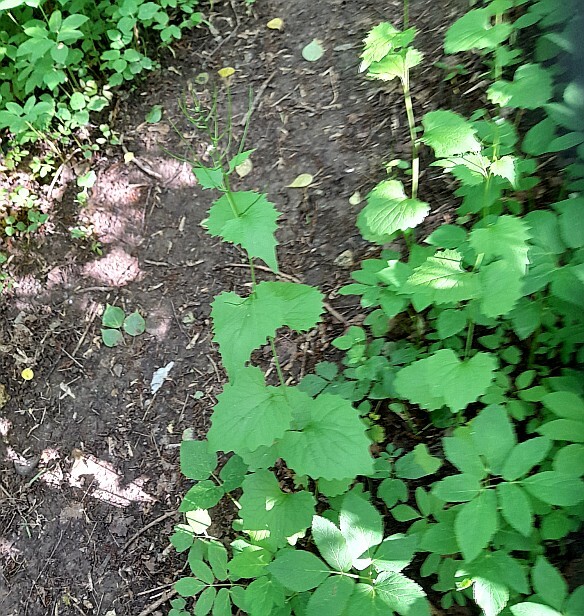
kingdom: Plantae
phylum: Tracheophyta
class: Magnoliopsida
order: Brassicales
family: Brassicaceae
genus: Alliaria
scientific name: Alliaria petiolata
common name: Garlic mustard
